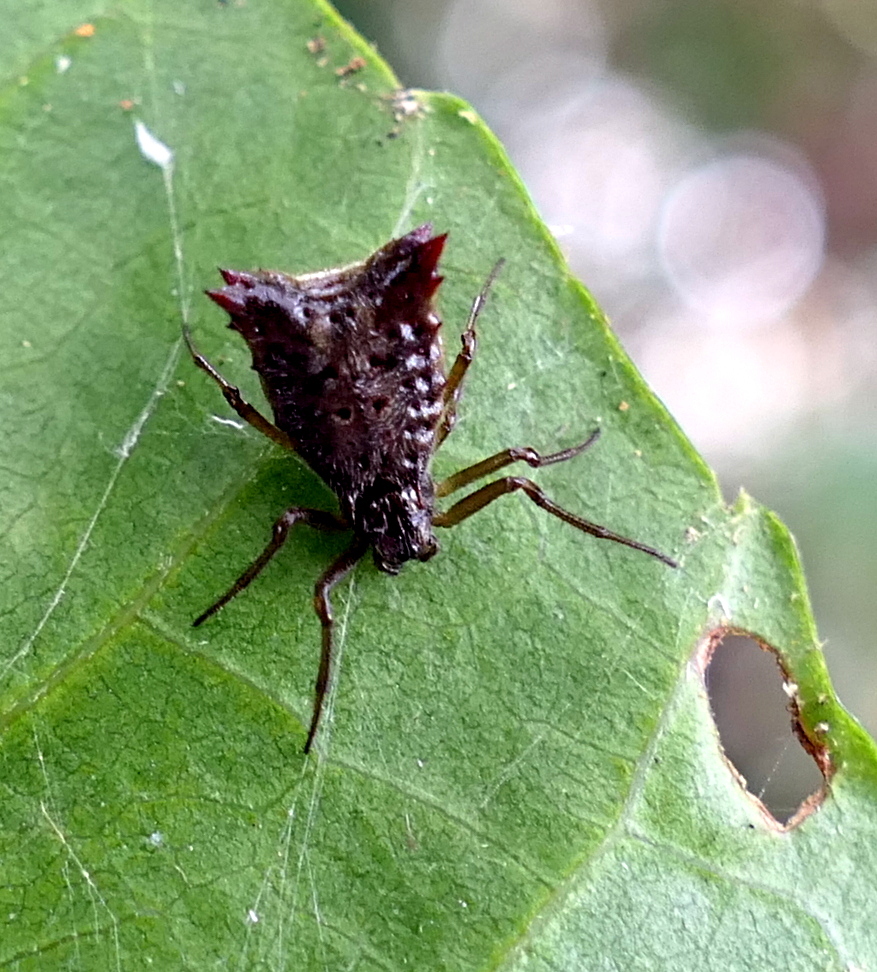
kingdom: Animalia
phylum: Arthropoda
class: Arachnida
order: Araneae
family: Araneidae
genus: Micrathena
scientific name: Micrathena plana
